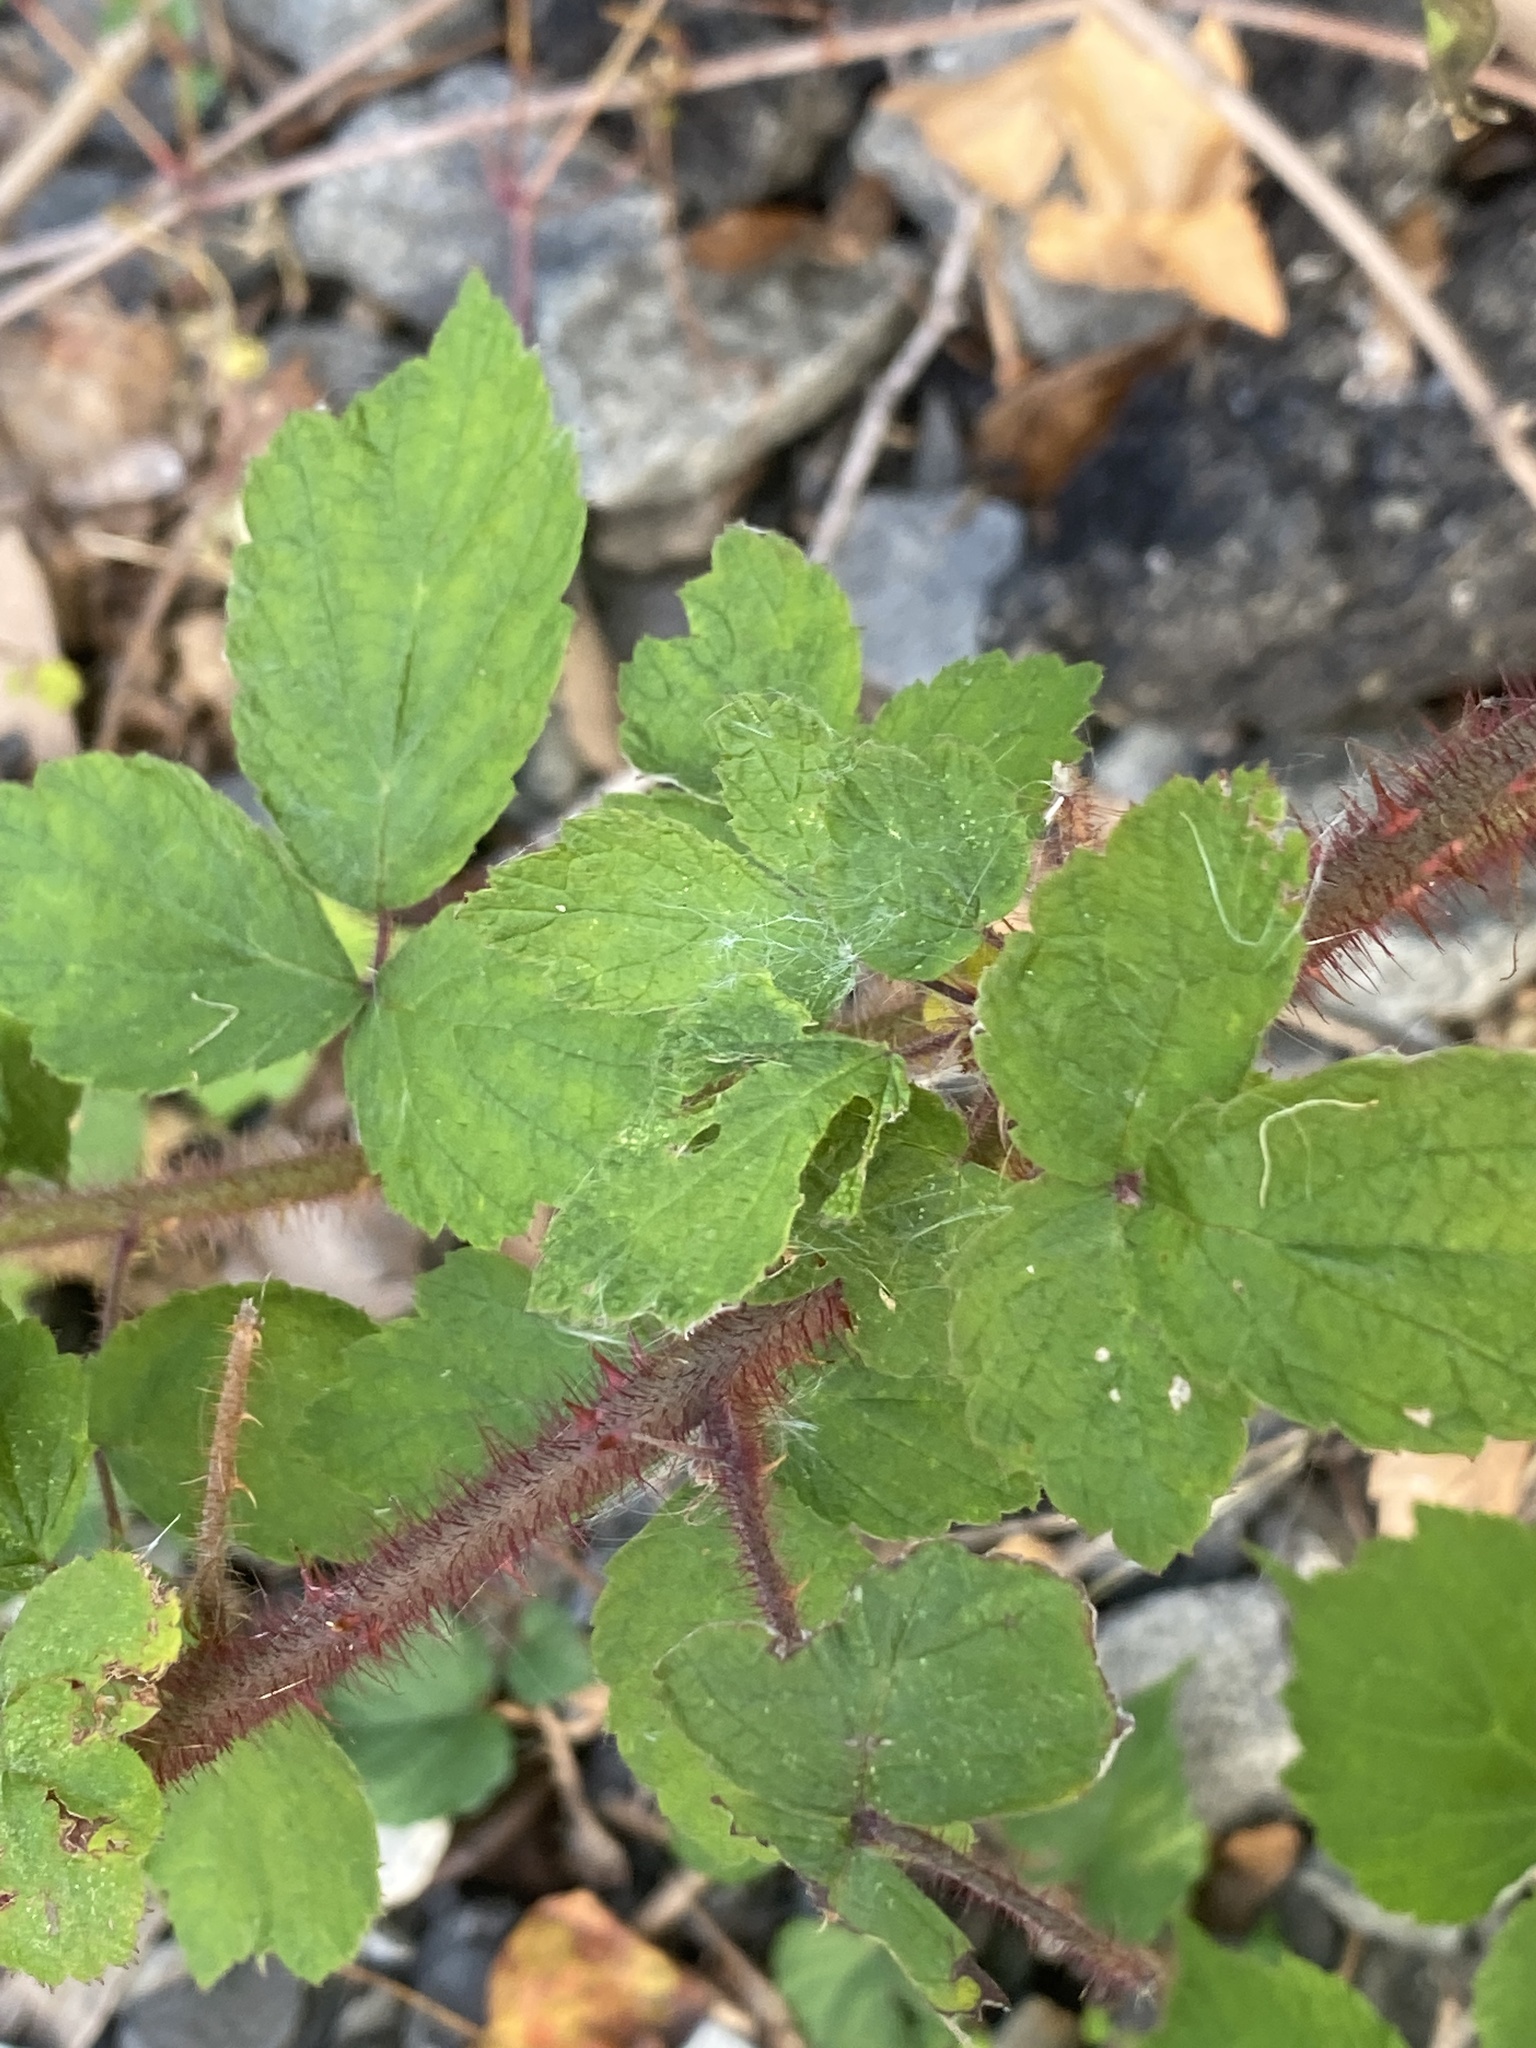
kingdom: Plantae
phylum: Tracheophyta
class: Magnoliopsida
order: Rosales
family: Rosaceae
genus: Rubus
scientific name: Rubus phoenicolasius
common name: Japanese wineberry
